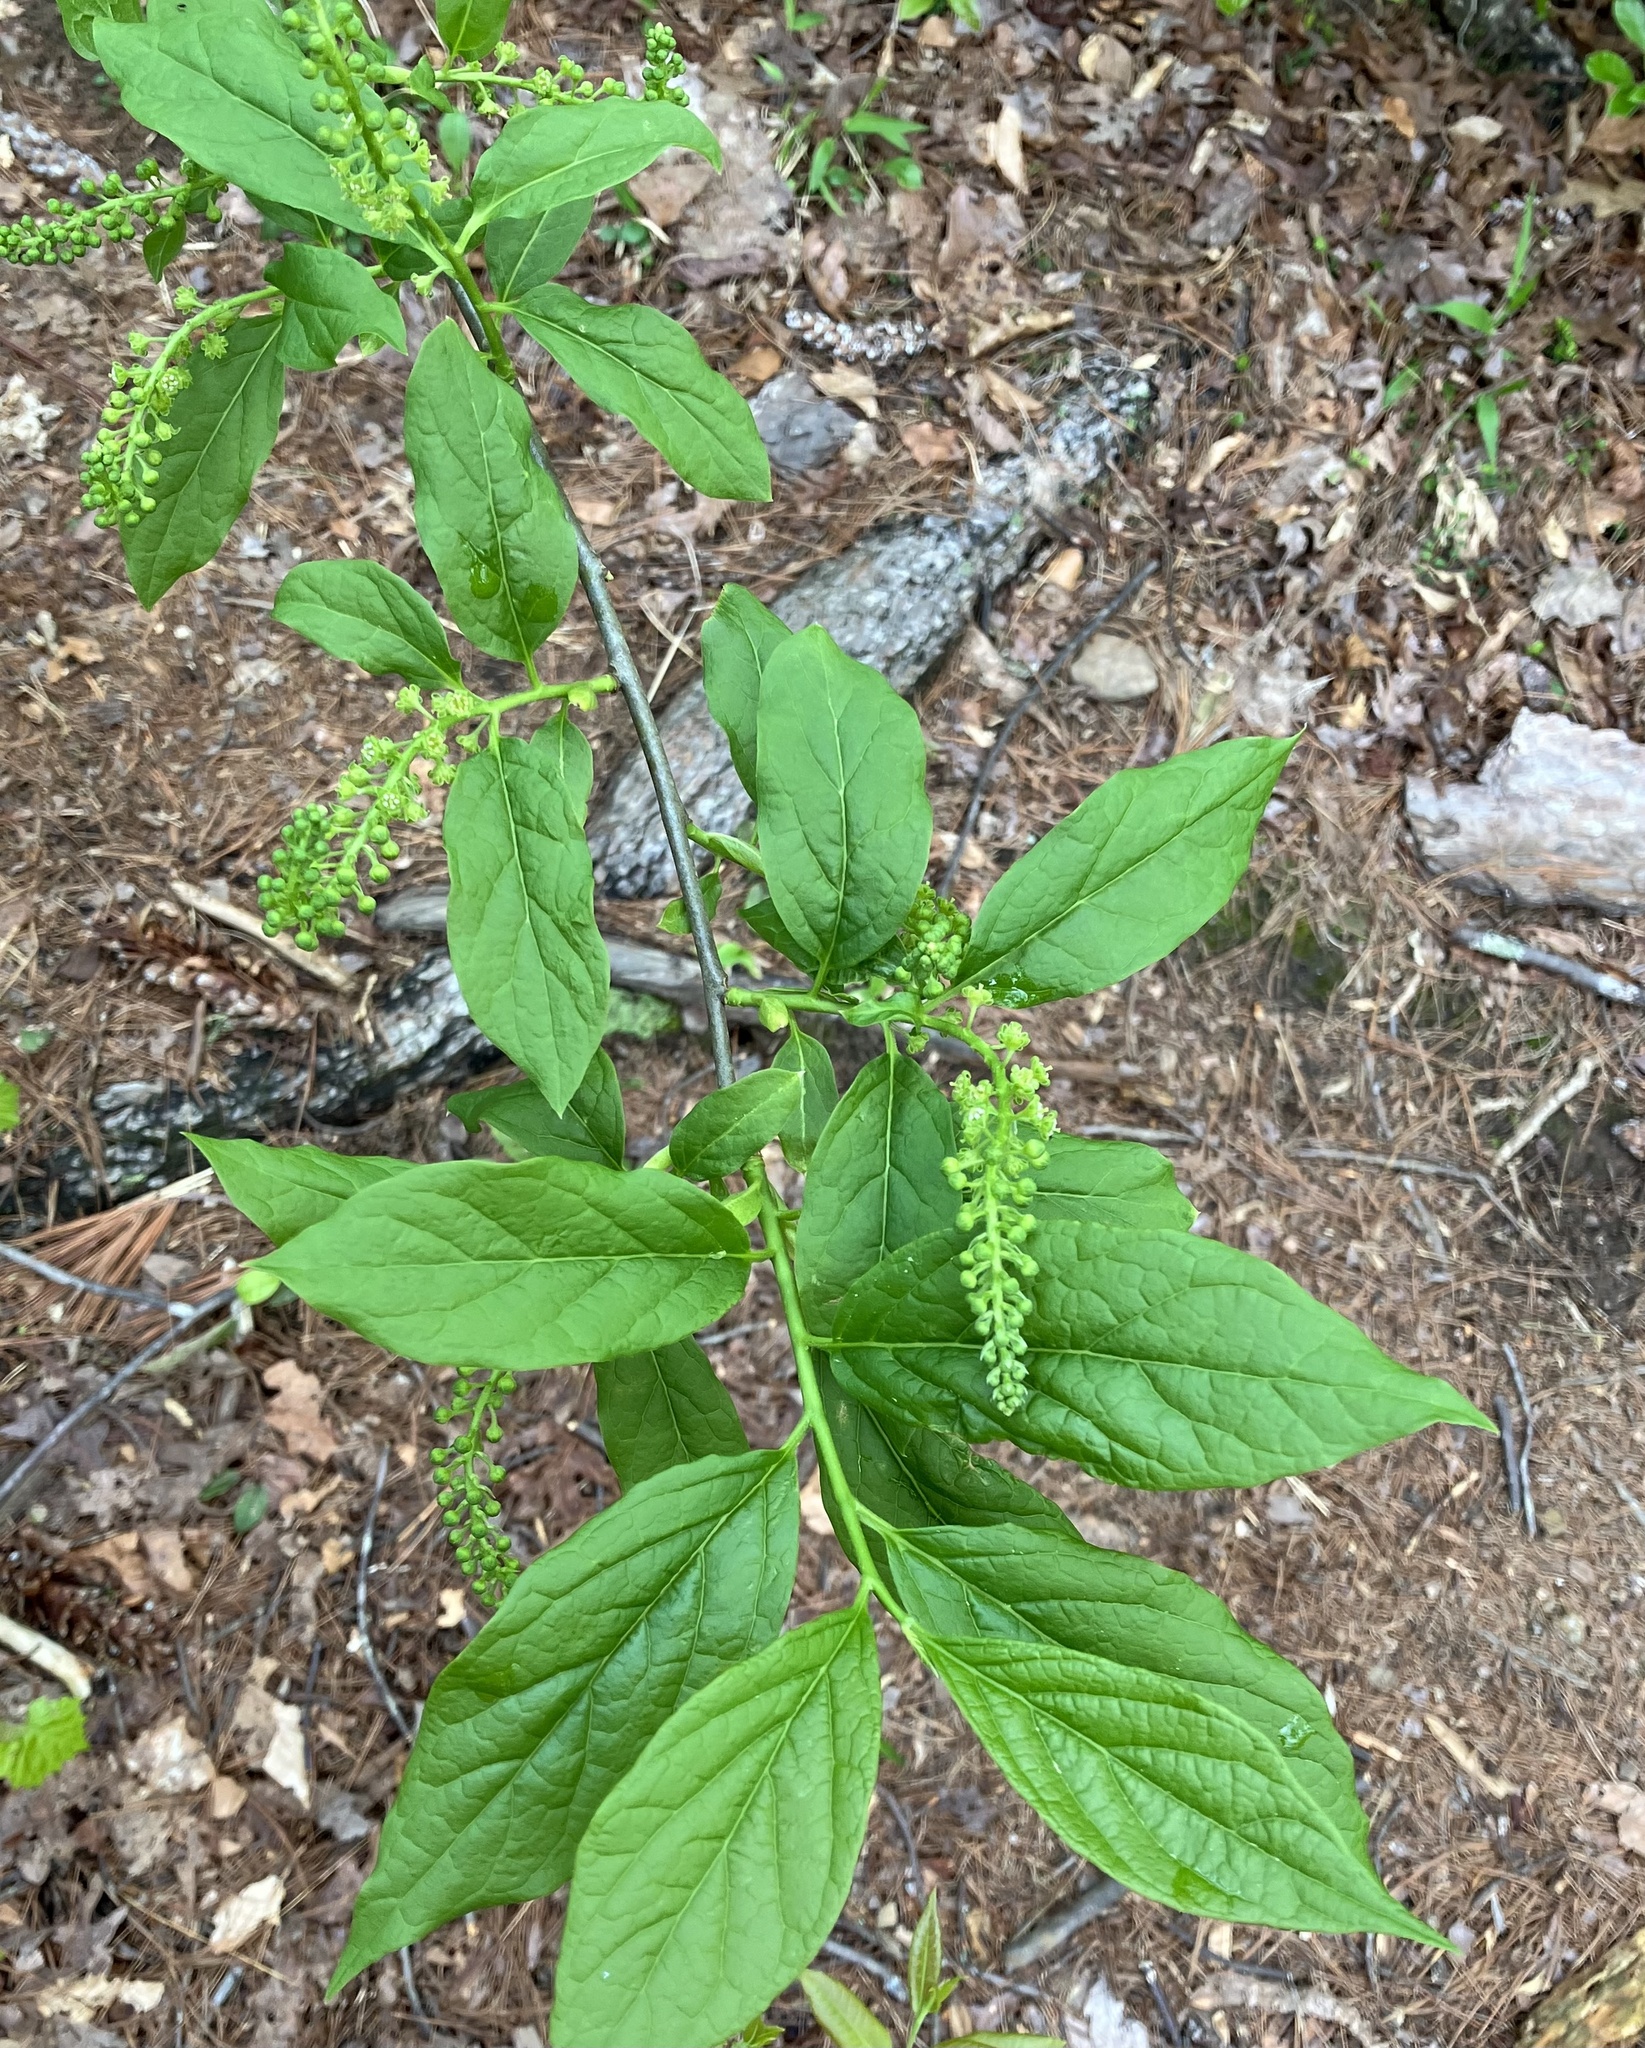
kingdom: Plantae
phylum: Tracheophyta
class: Magnoliopsida
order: Santalales
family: Cervantesiaceae
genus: Pyrularia
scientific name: Pyrularia pubera
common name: Oilnut
